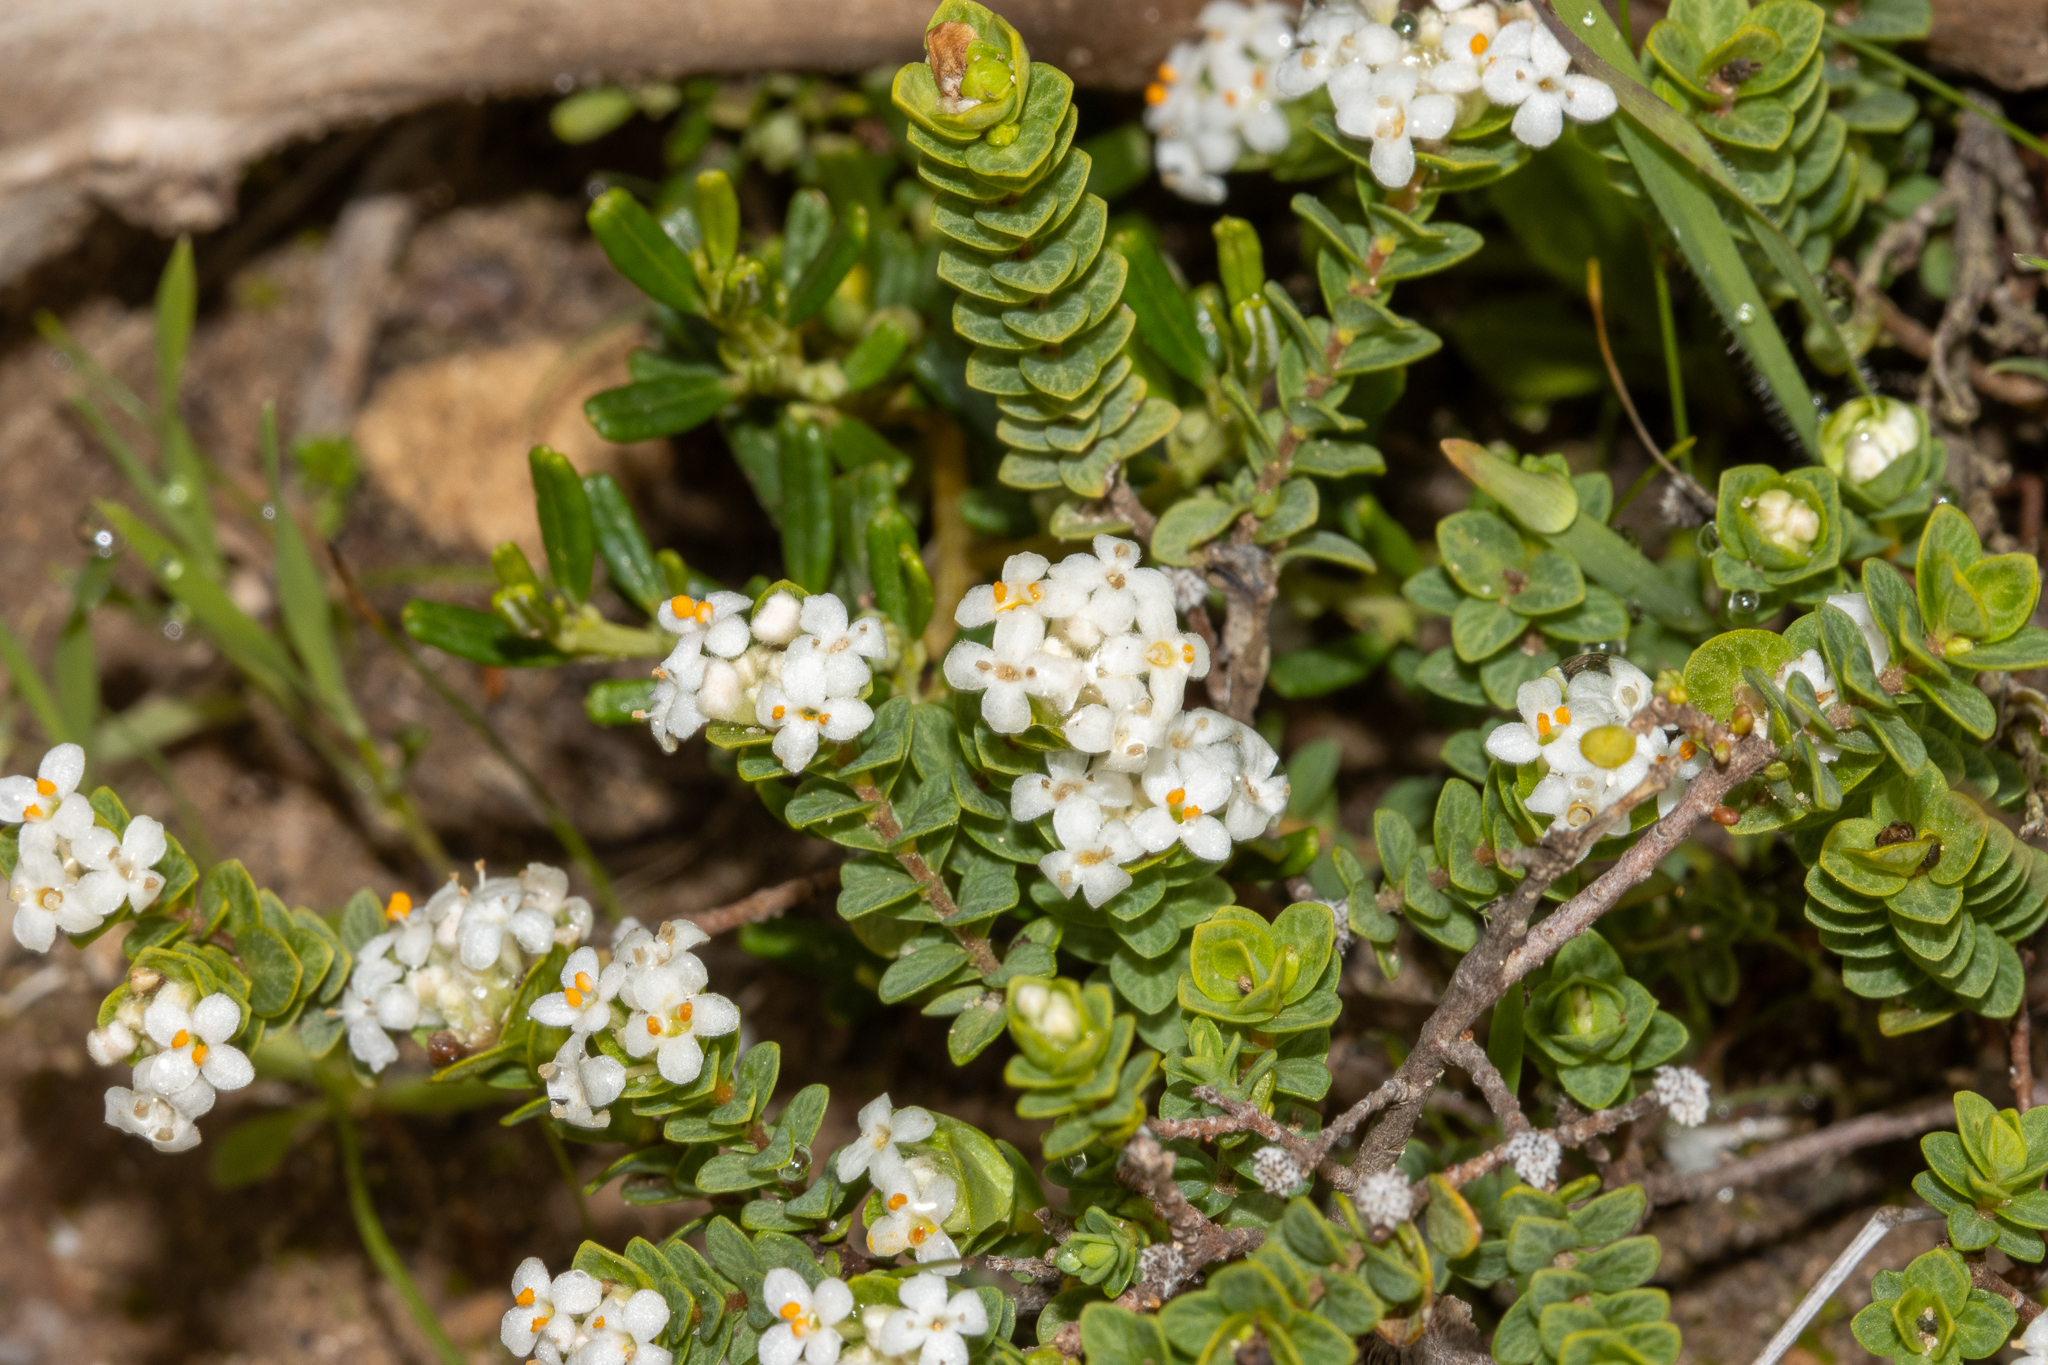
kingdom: Plantae
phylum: Tracheophyta
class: Magnoliopsida
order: Malvales
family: Thymelaeaceae
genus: Pimelea
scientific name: Pimelea flava
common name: Yellow riceflower
